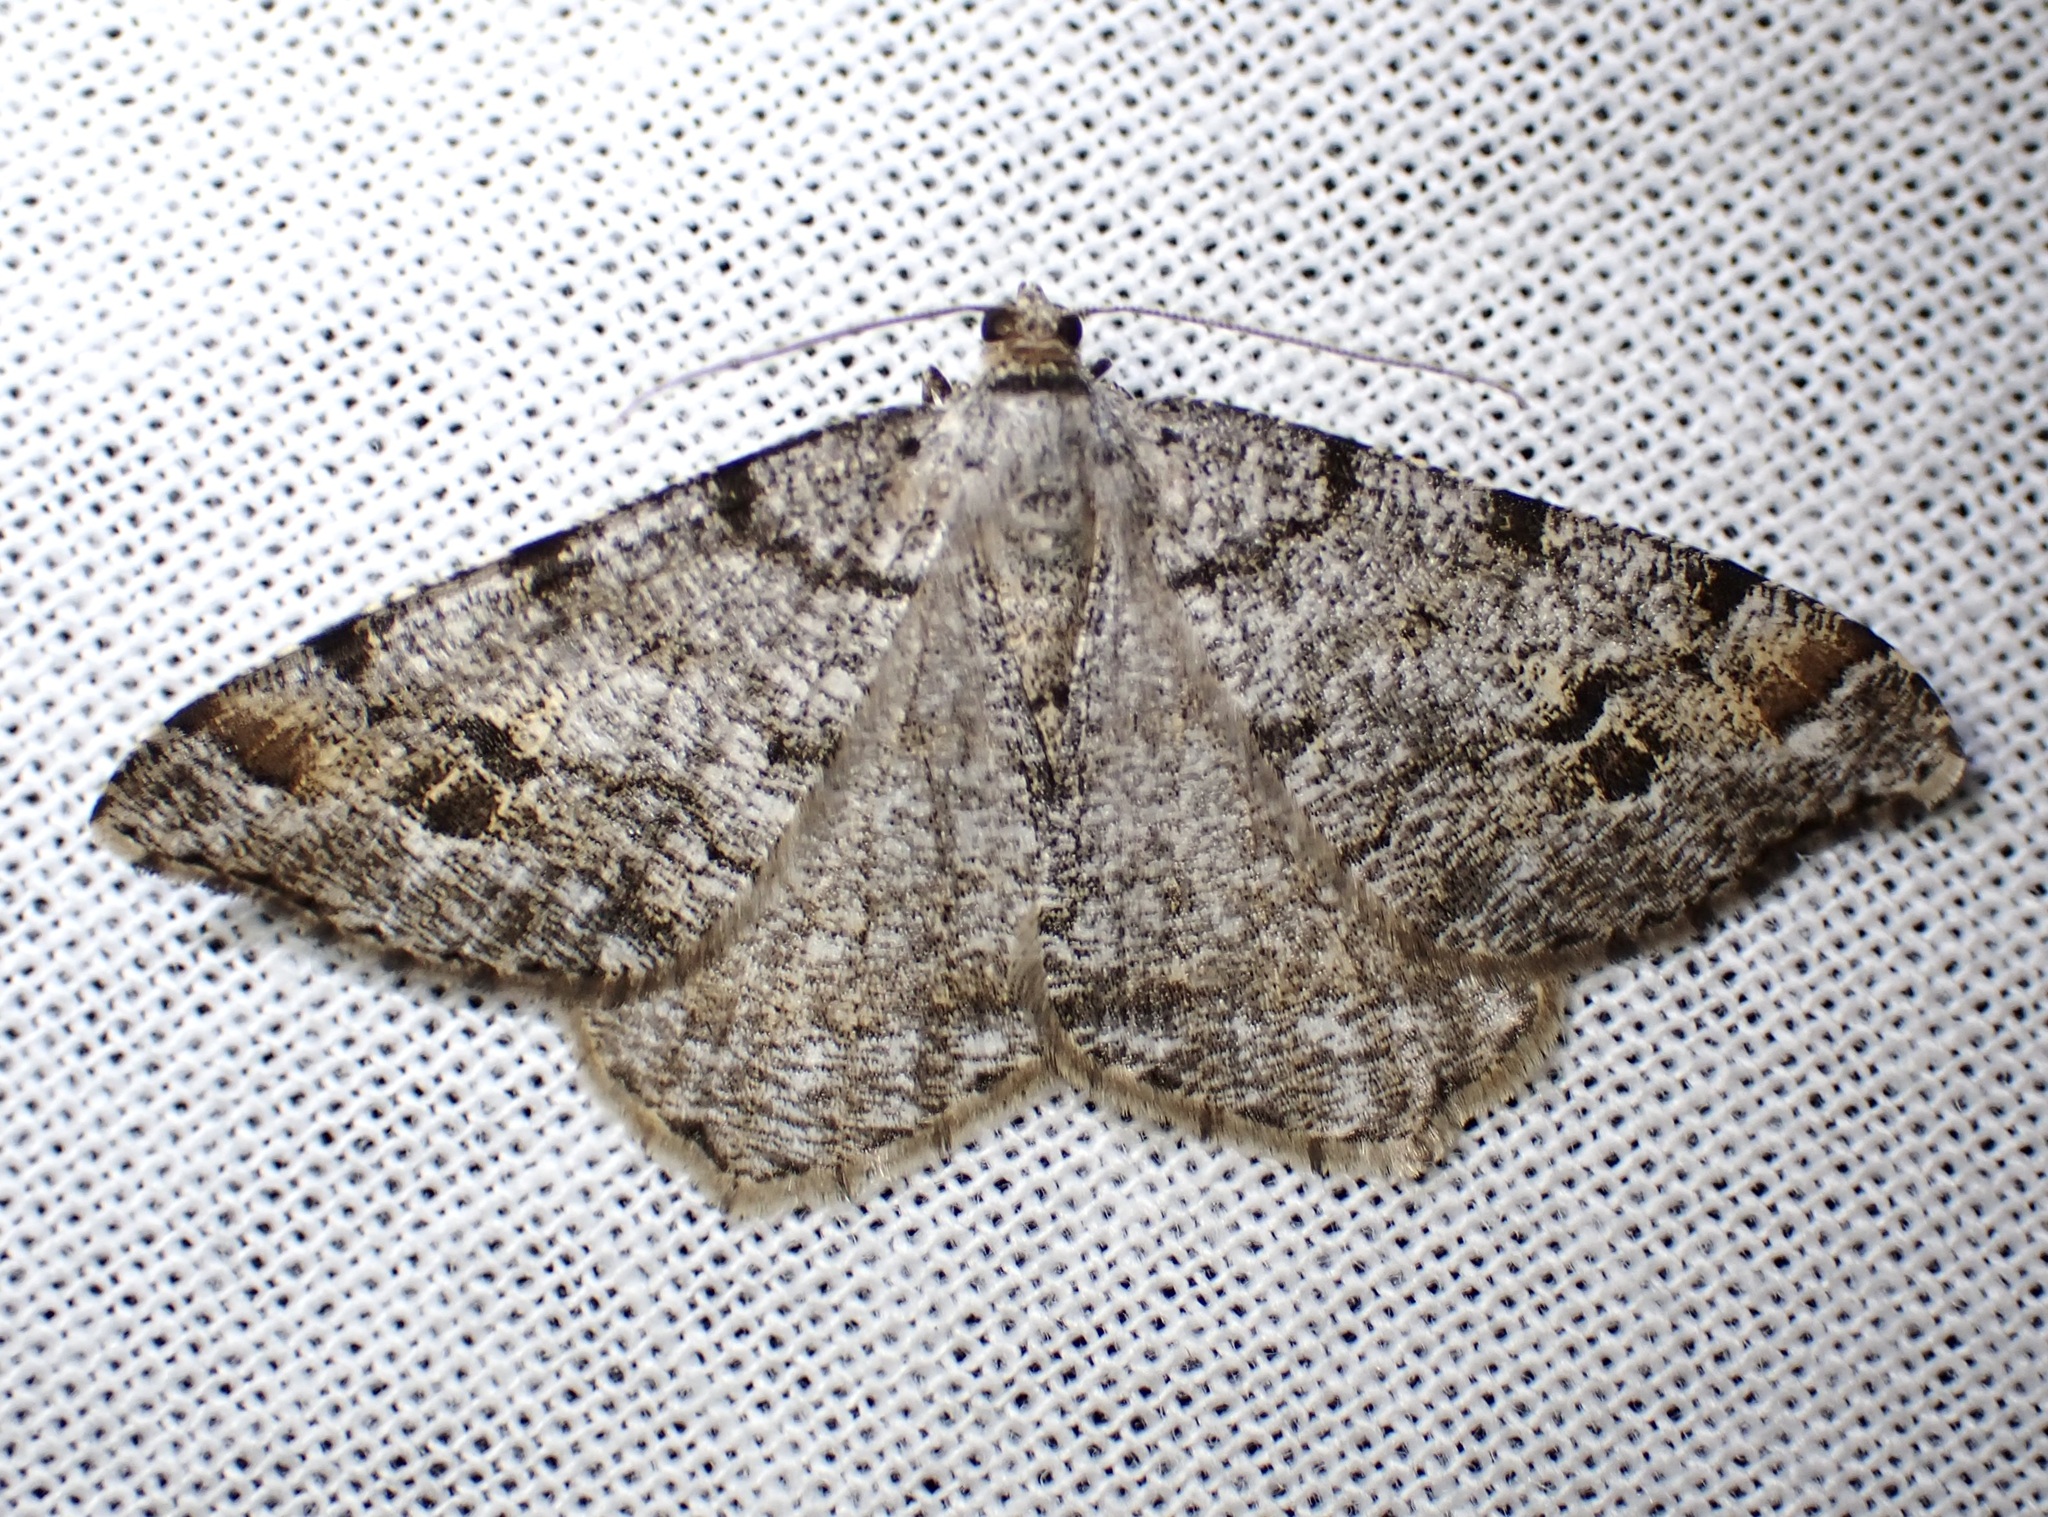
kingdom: Animalia
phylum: Arthropoda
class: Insecta
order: Lepidoptera
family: Geometridae
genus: Macaria
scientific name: Macaria signaria
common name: Dusky peacock
